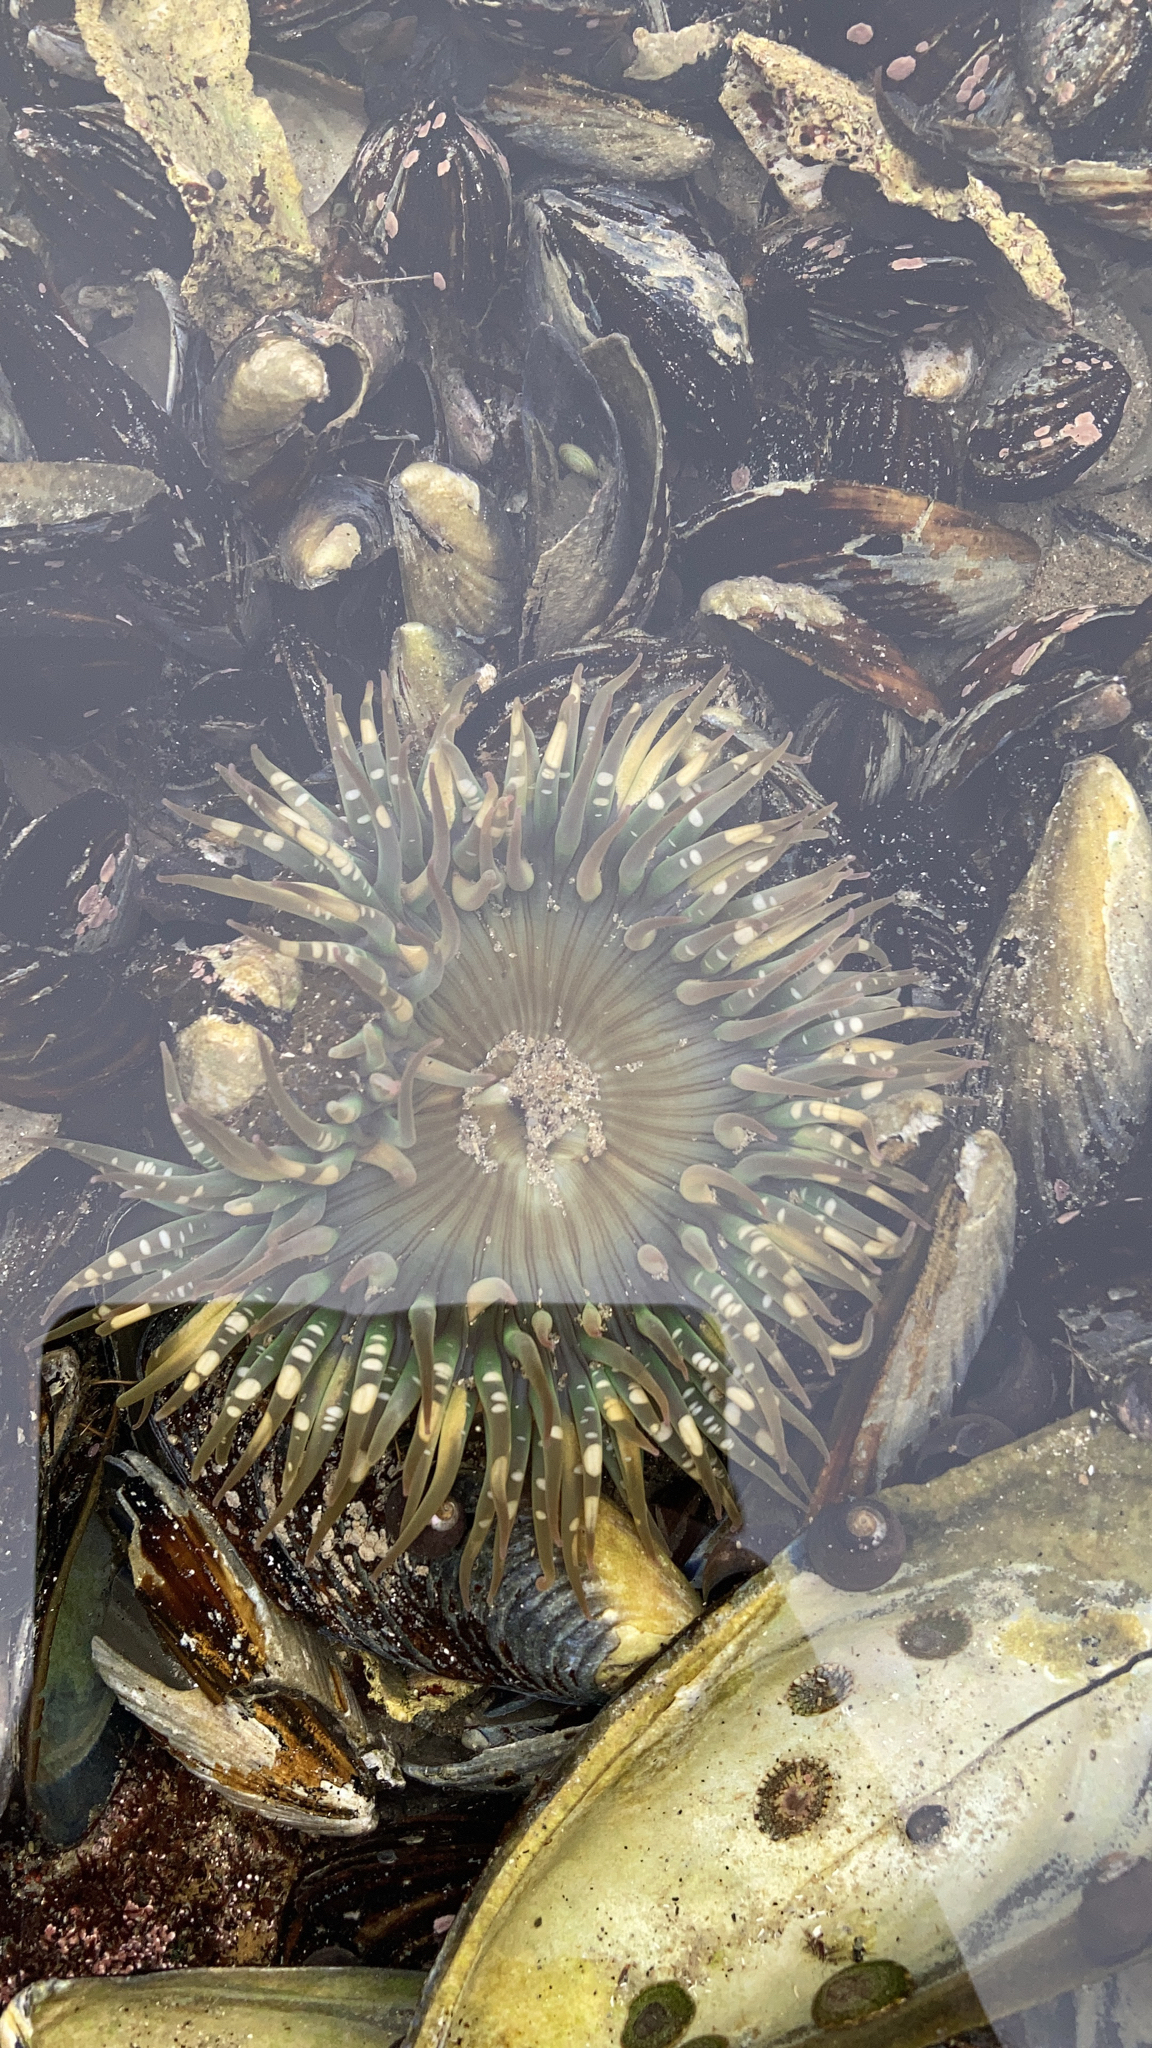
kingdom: Animalia
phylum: Cnidaria
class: Anthozoa
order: Actiniaria
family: Actiniidae
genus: Anthopleura
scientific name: Anthopleura sola
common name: Sun anemone
